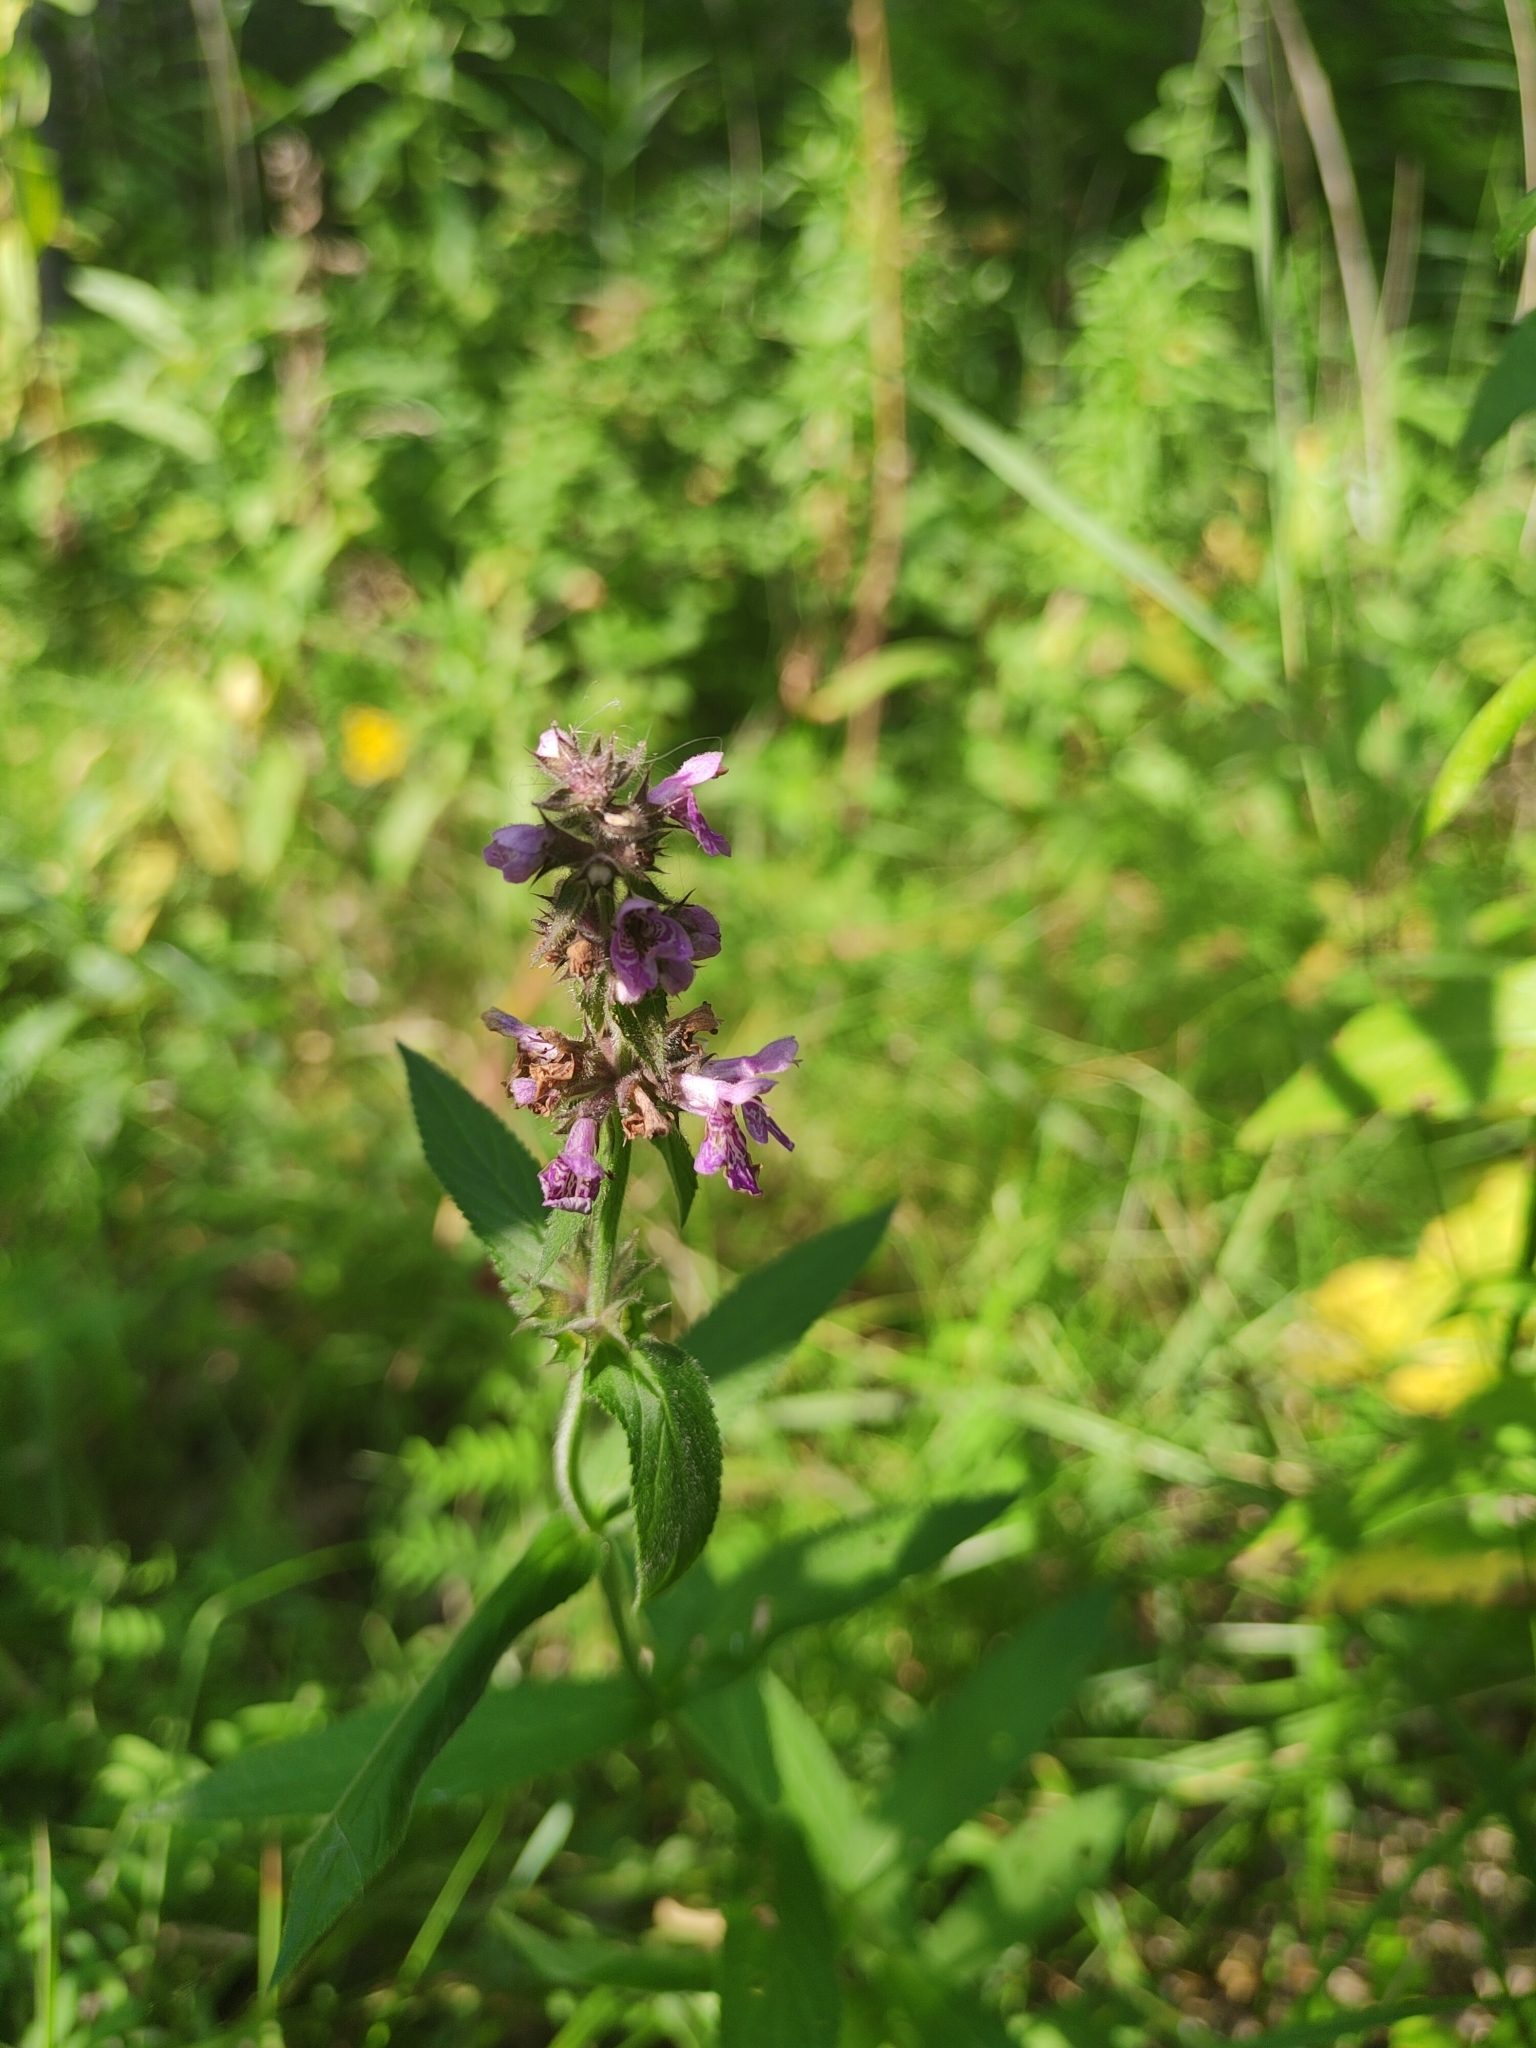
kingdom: Plantae
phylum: Tracheophyta
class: Magnoliopsida
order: Lamiales
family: Lamiaceae
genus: Stachys
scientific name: Stachys palustris
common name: Marsh woundwort
